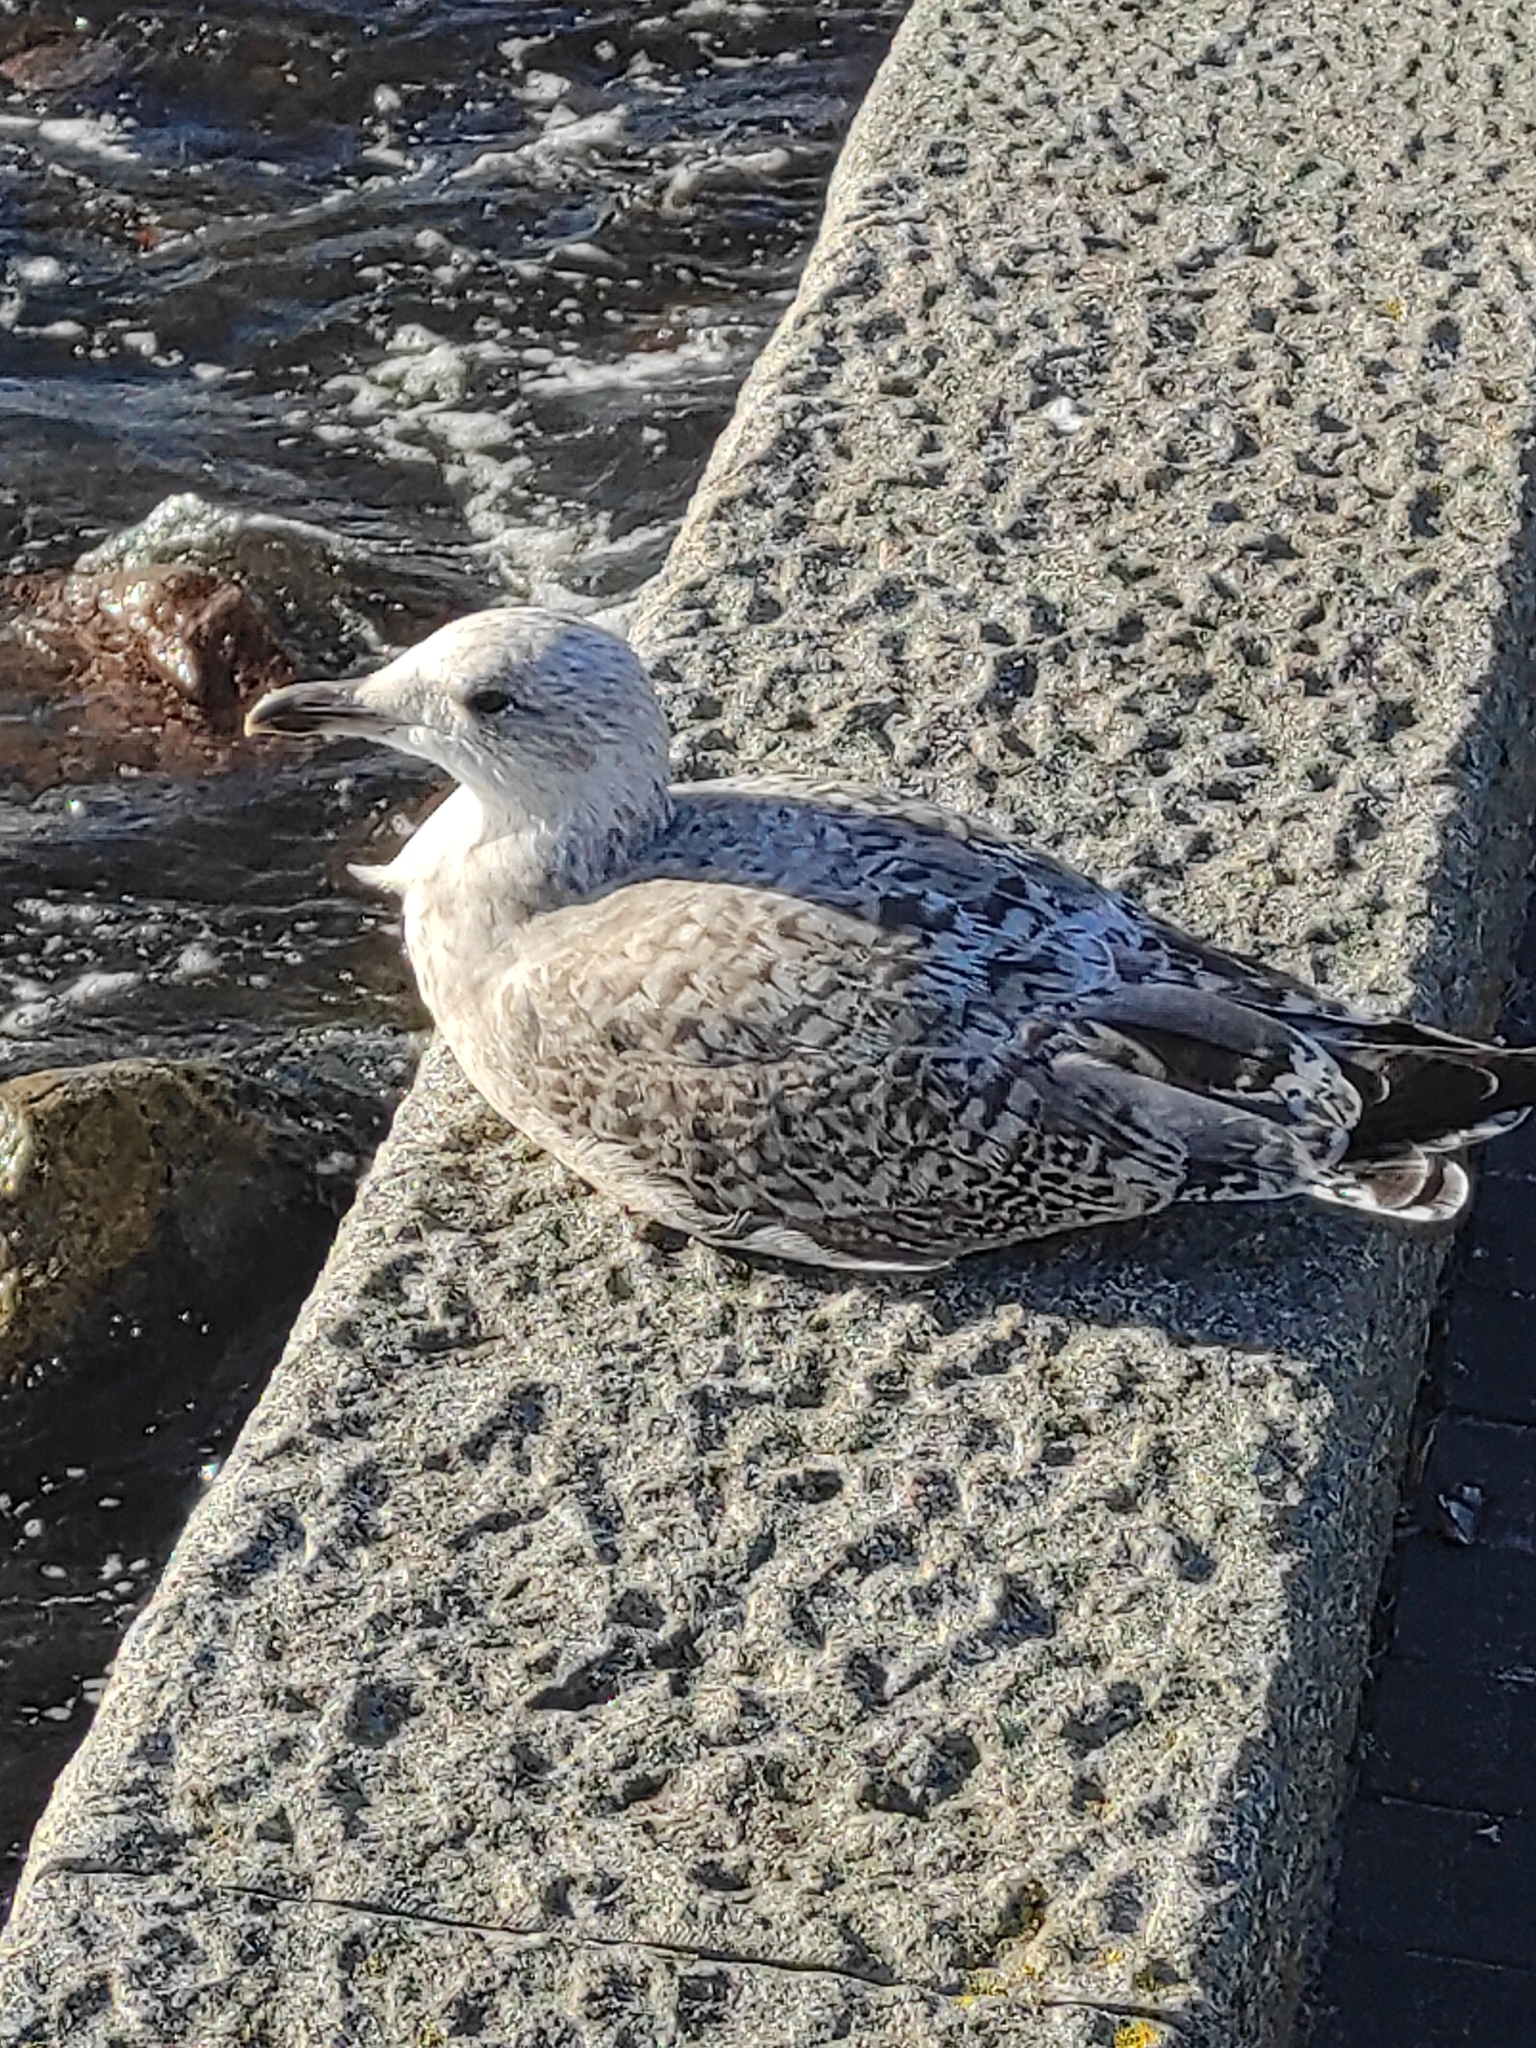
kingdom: Animalia
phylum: Chordata
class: Aves
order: Charadriiformes
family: Laridae
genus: Larus
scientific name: Larus argentatus
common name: Herring gull
